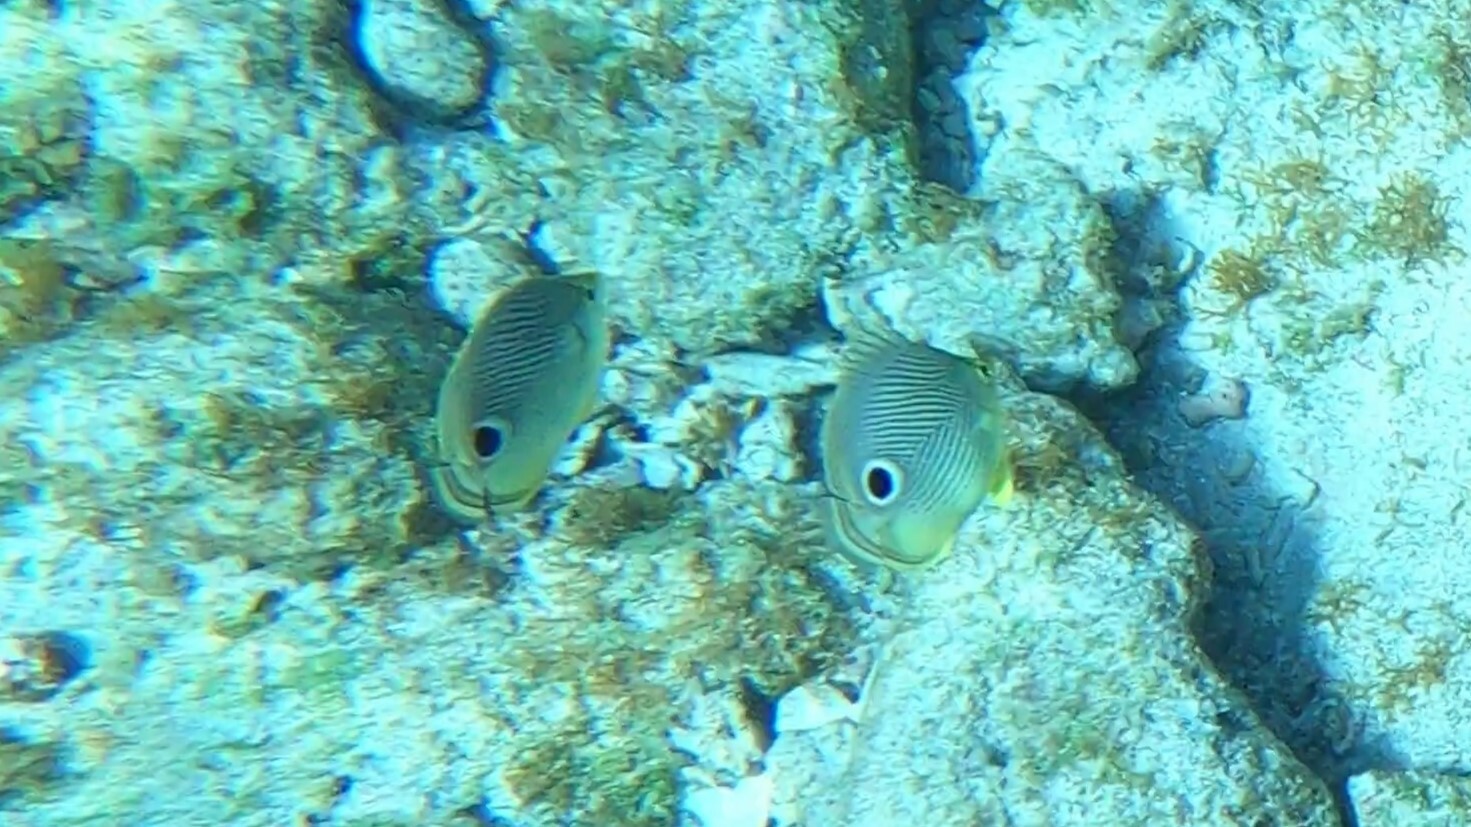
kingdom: Animalia
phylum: Chordata
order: Perciformes
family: Chaetodontidae
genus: Chaetodon
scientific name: Chaetodon capistratus
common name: Kete
